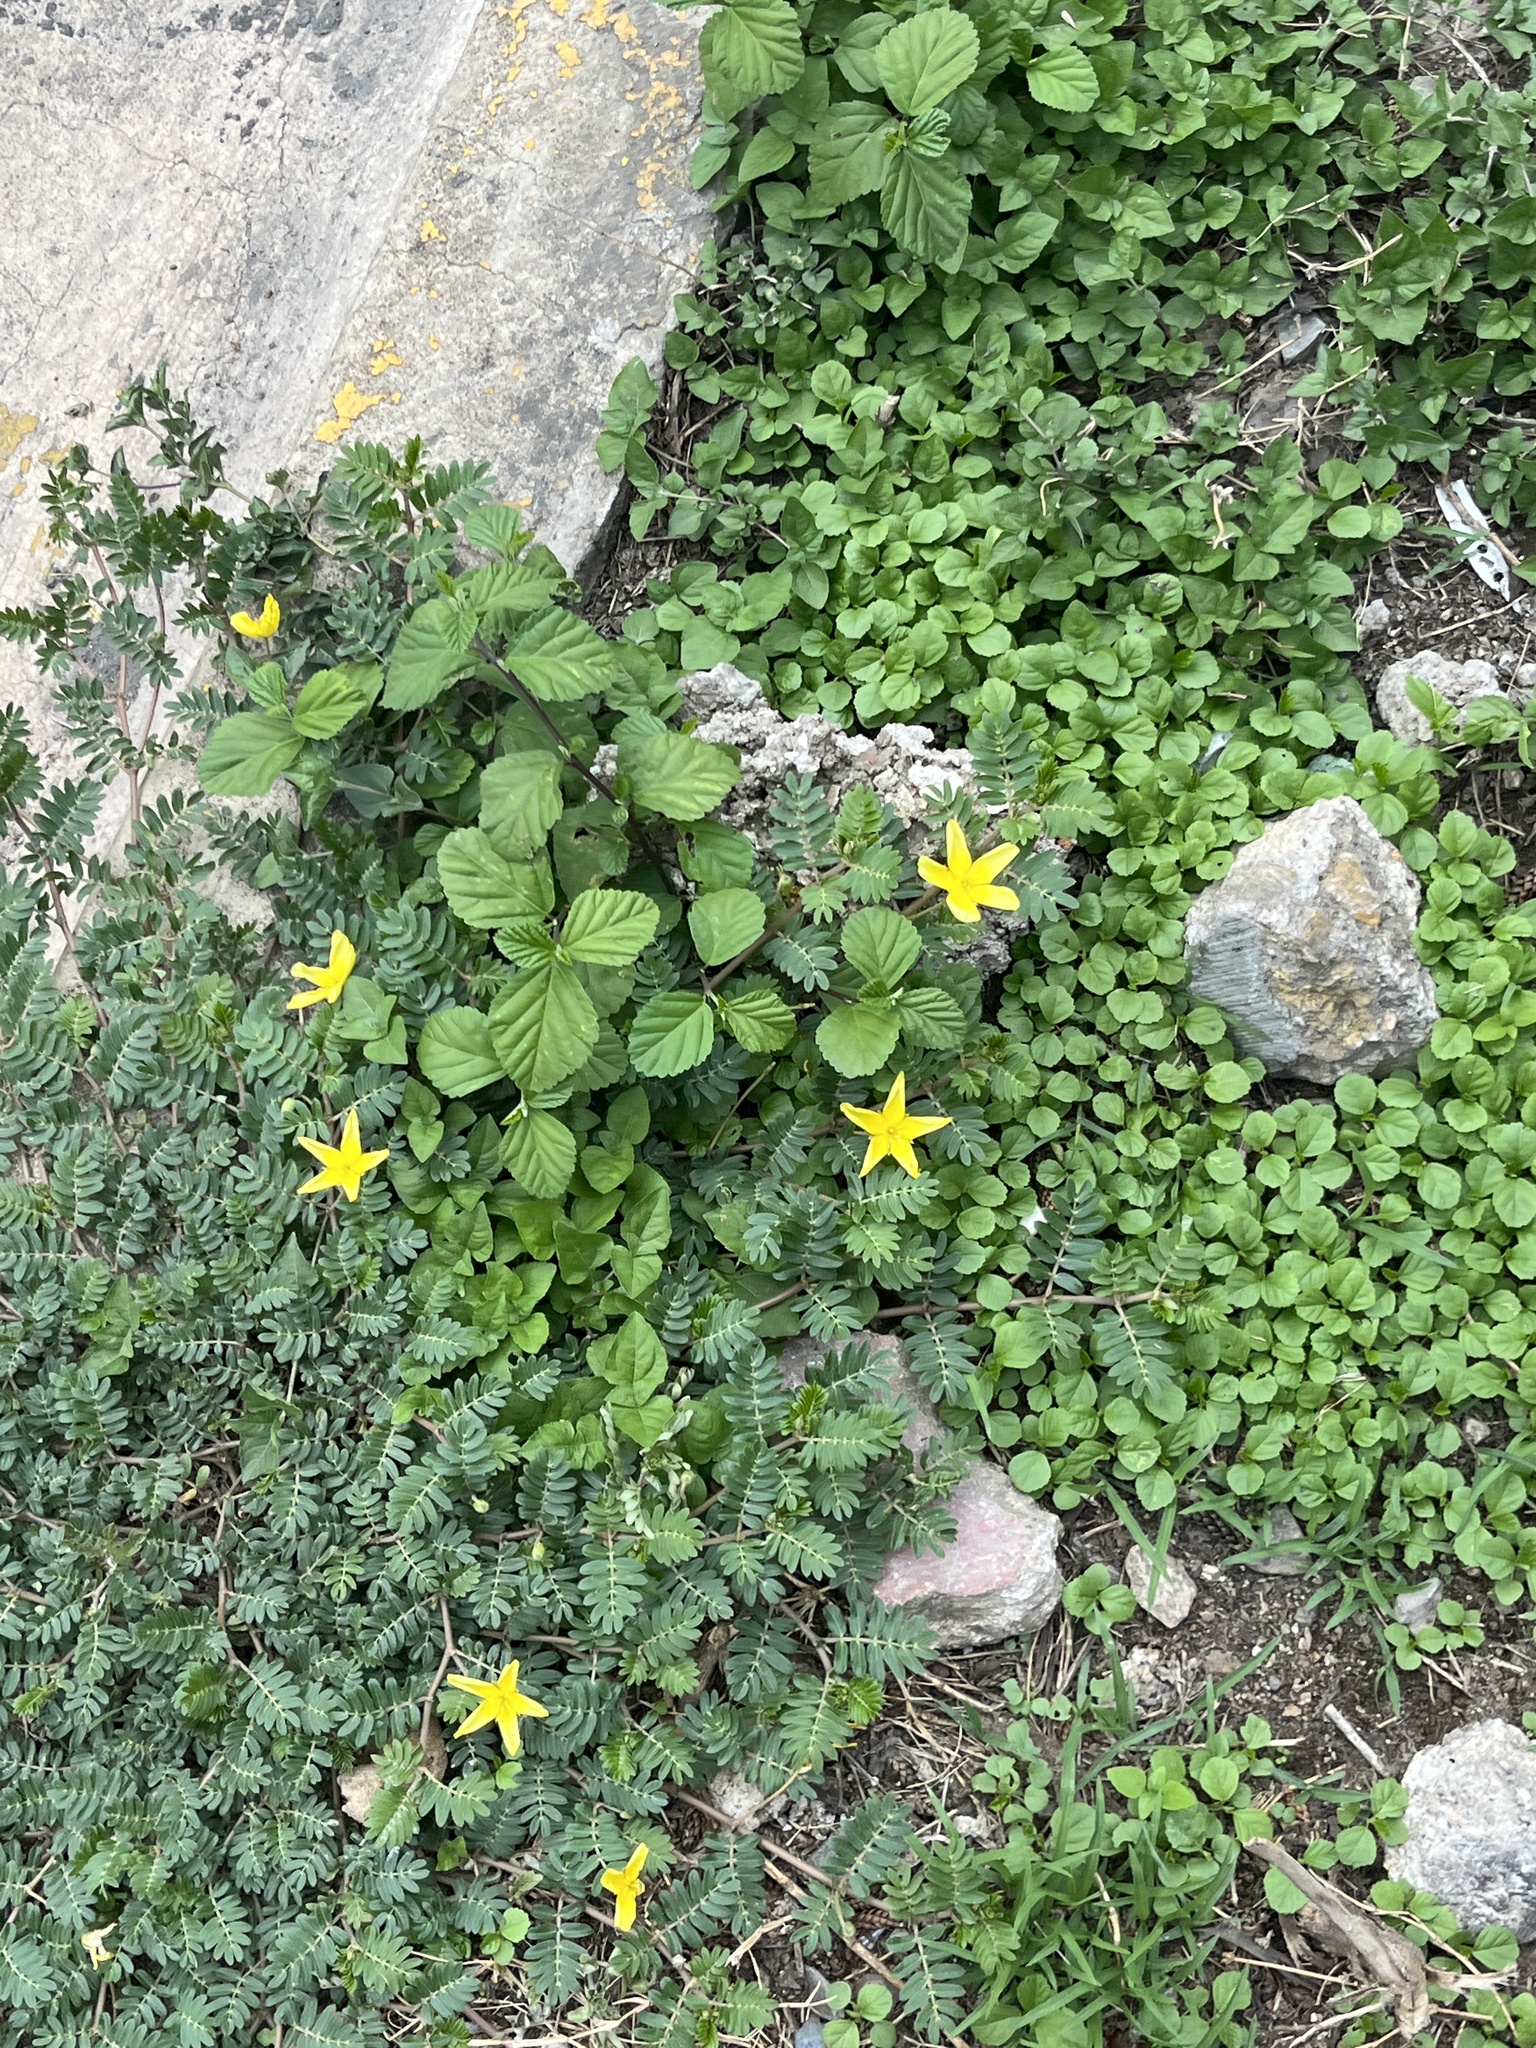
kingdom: Plantae
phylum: Tracheophyta
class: Magnoliopsida
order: Zygophyllales
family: Zygophyllaceae
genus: Tribulus
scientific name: Tribulus cistoides
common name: Jamaican feverplant
